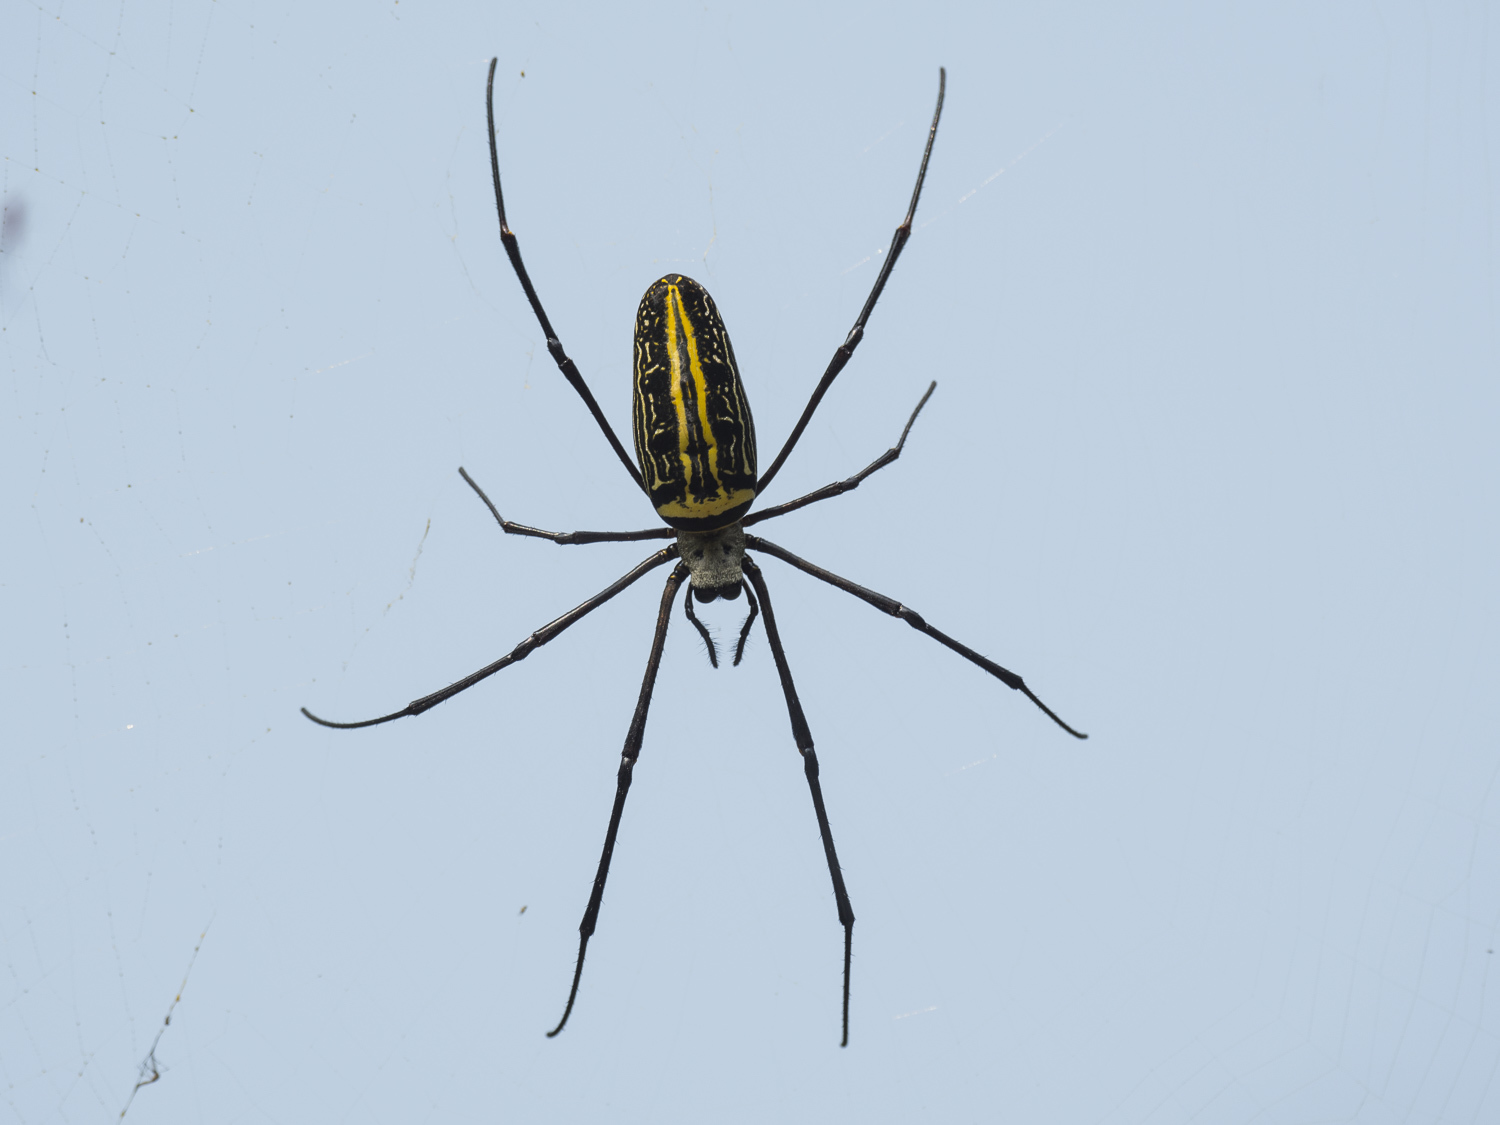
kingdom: Animalia
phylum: Arthropoda
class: Arachnida
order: Araneae
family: Araneidae
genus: Nephila
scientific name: Nephila pilipes
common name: Giant golden orb weaver
